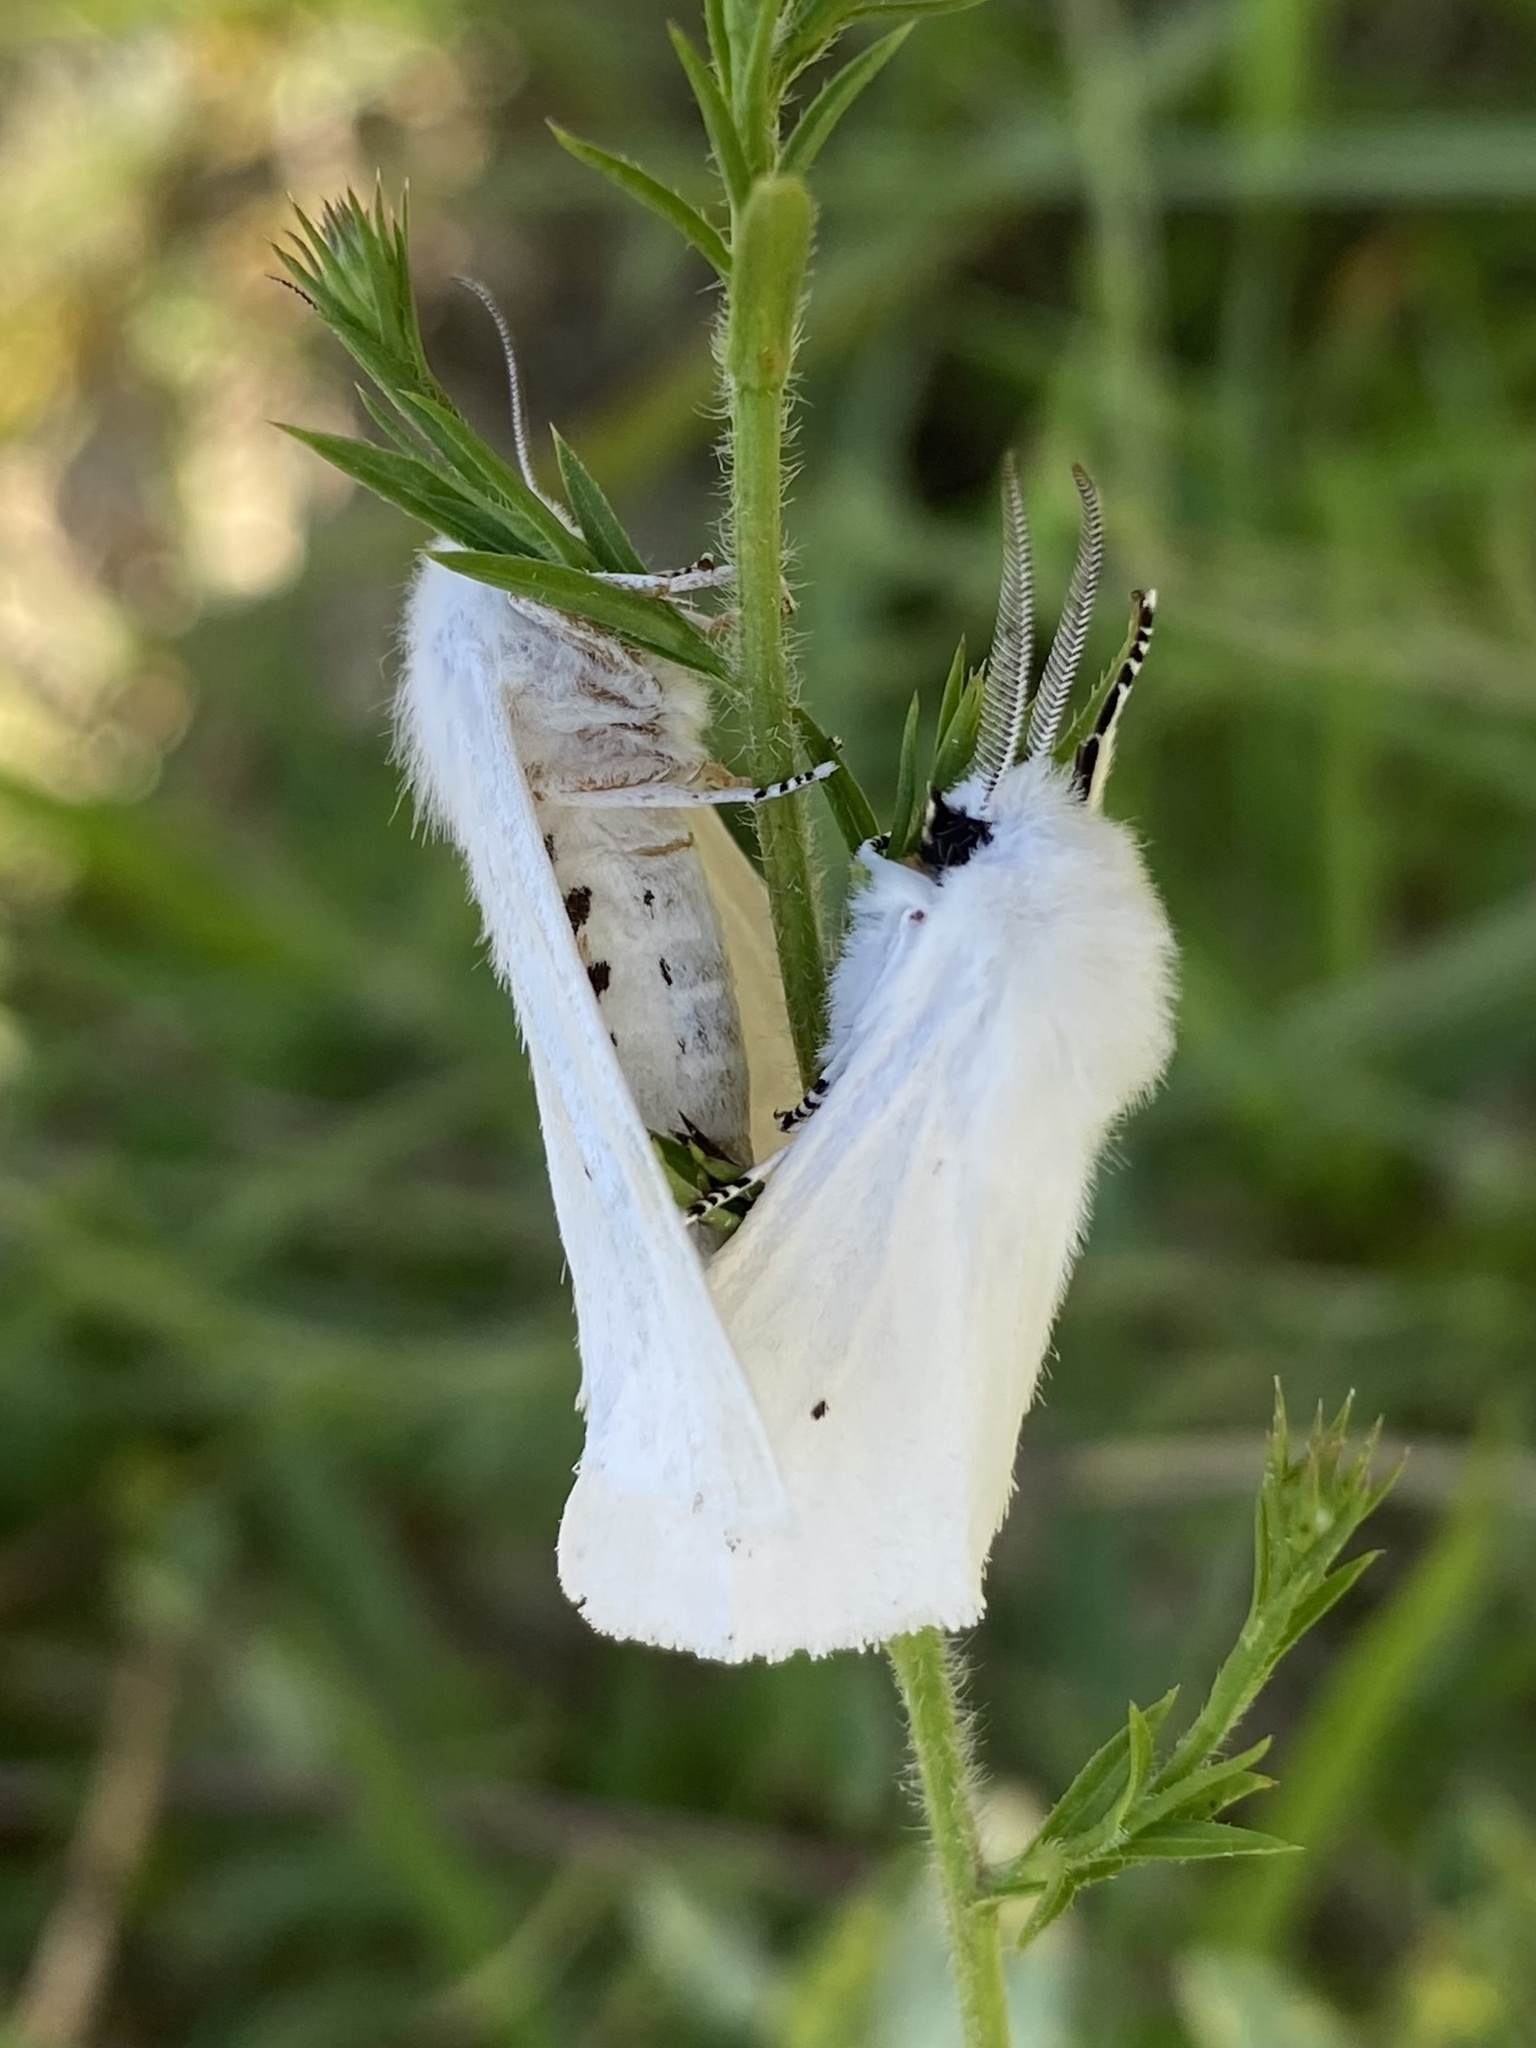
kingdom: Animalia
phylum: Arthropoda
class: Insecta
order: Lepidoptera
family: Erebidae
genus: Spilosoma
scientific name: Spilosoma virginica
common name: Virginia tiger moth
